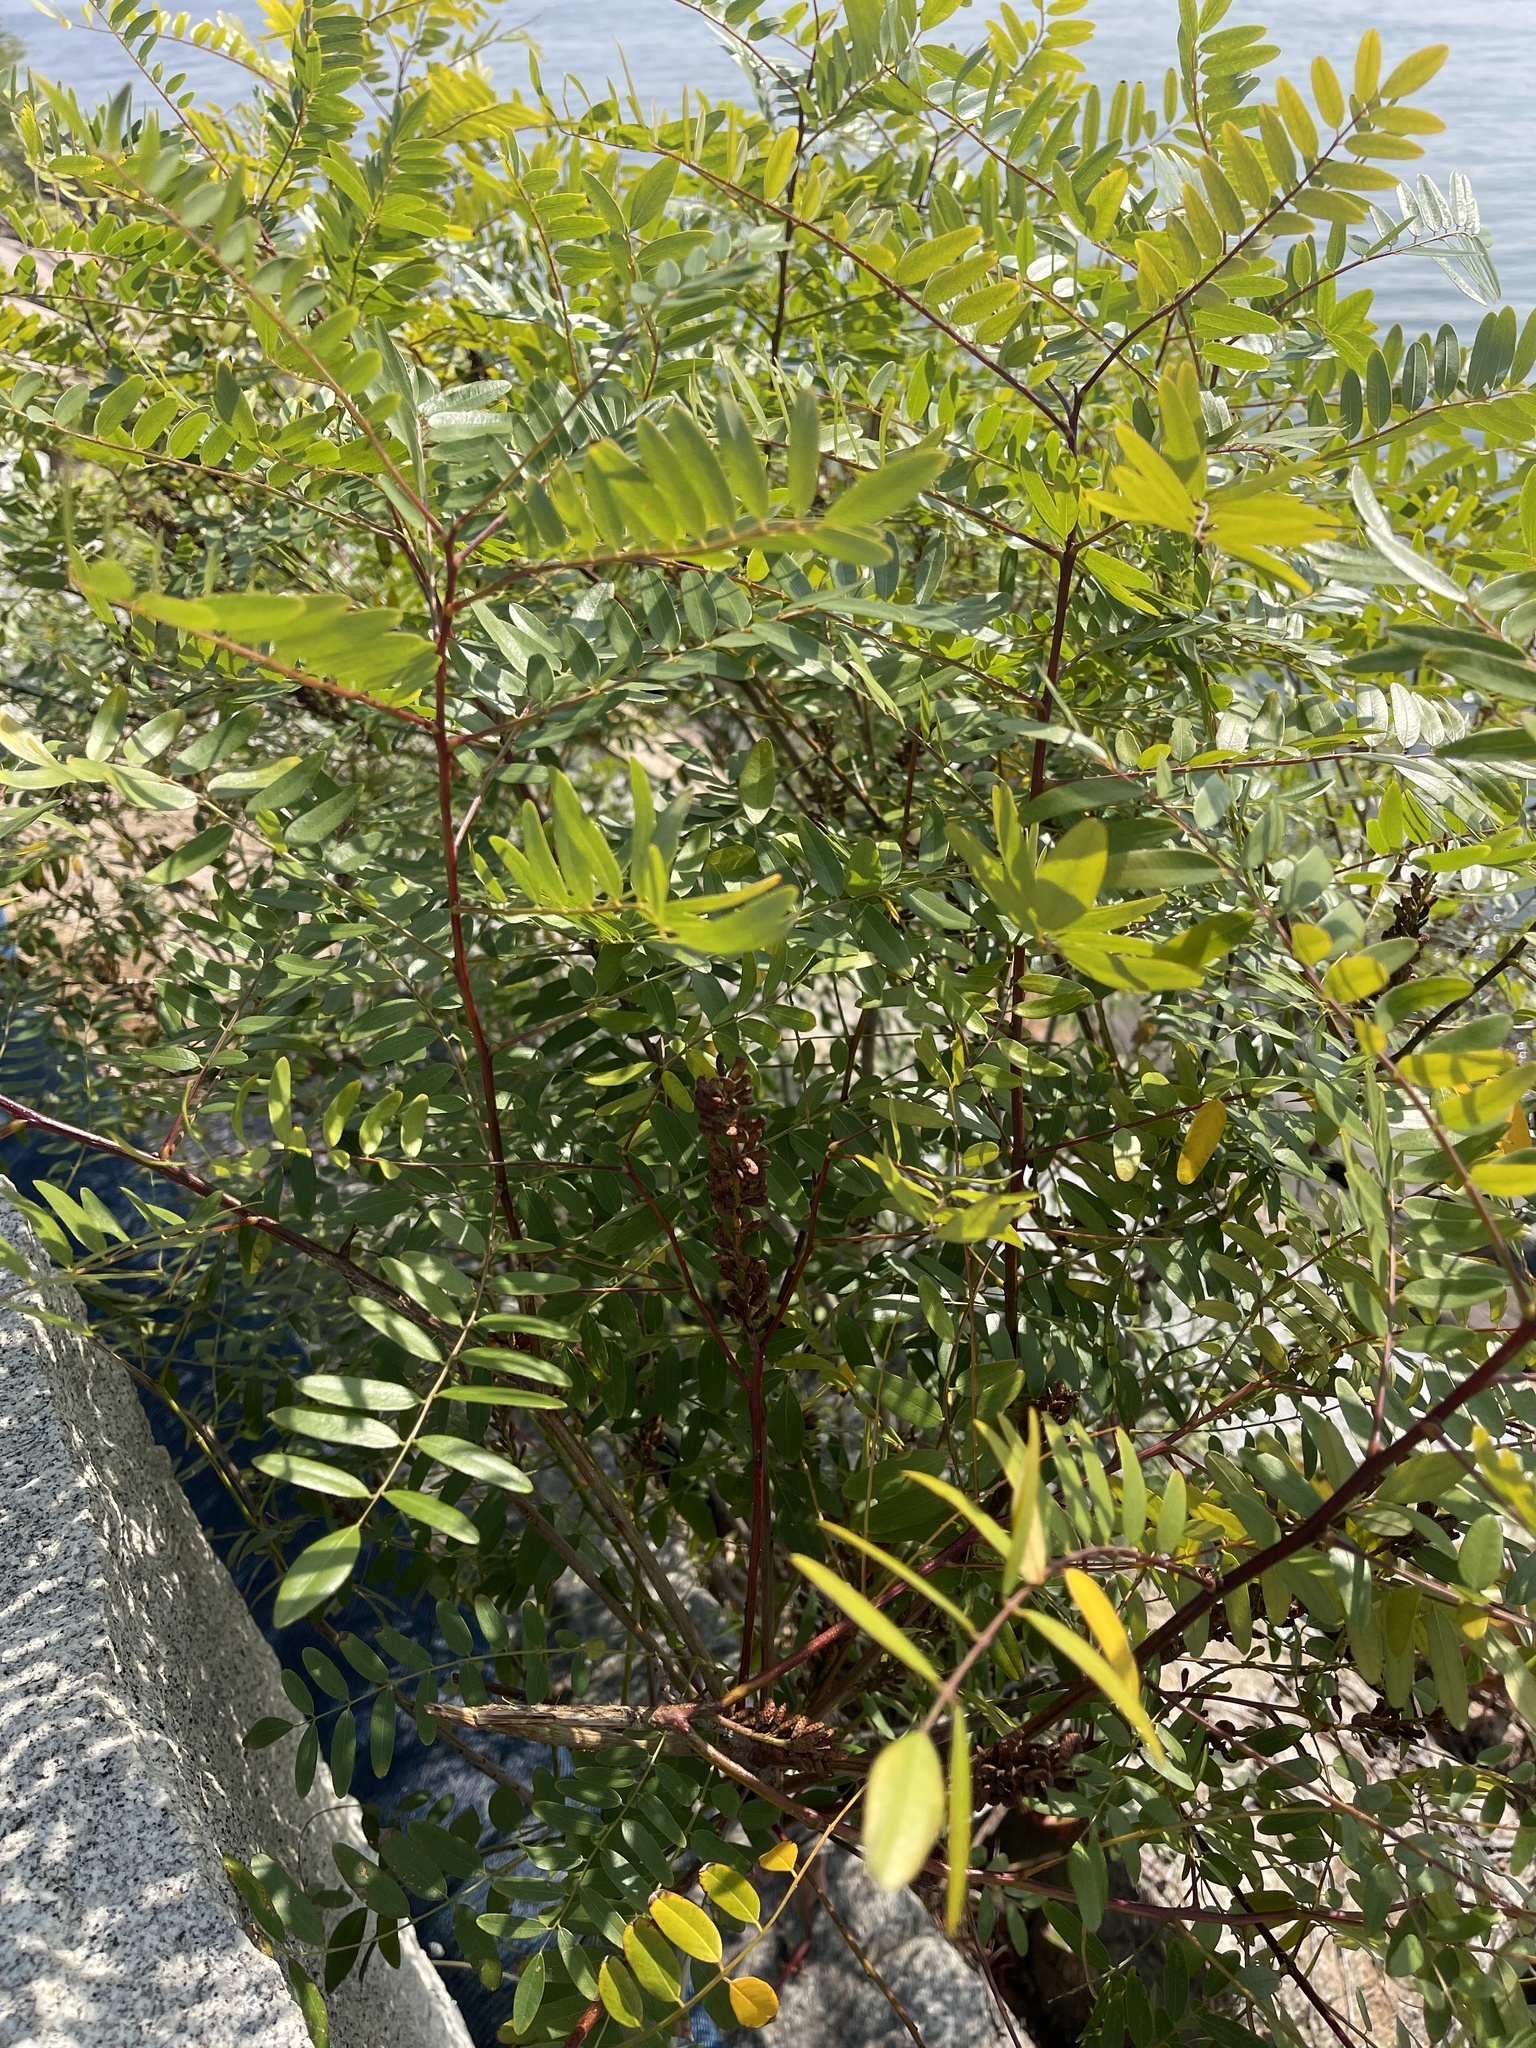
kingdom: Plantae
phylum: Tracheophyta
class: Magnoliopsida
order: Fabales
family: Fabaceae
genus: Amorpha
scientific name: Amorpha fruticosa
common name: False indigo
